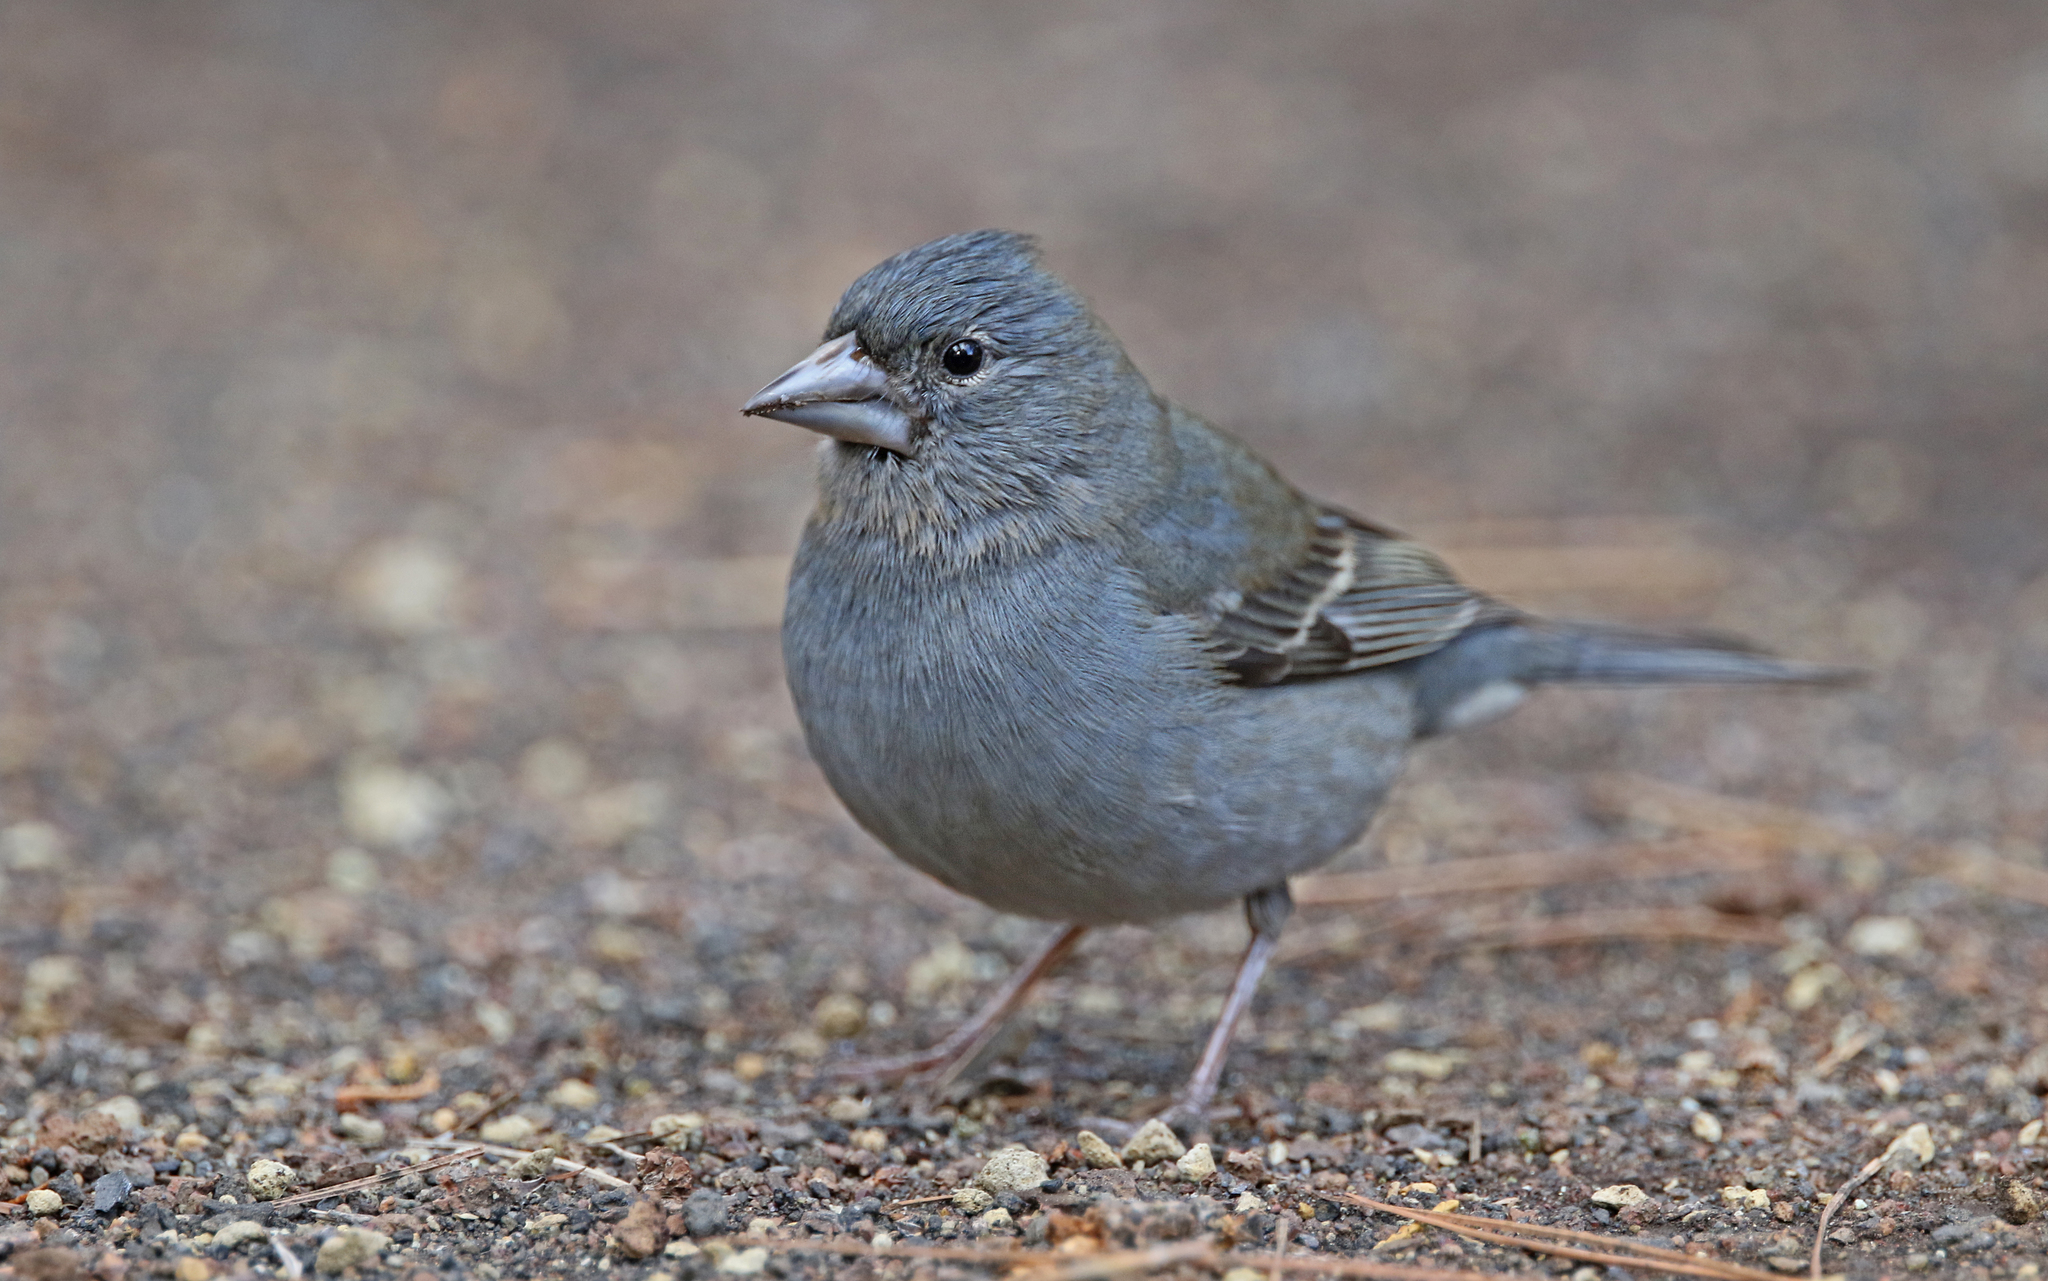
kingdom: Animalia
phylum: Chordata
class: Aves
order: Passeriformes
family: Fringillidae
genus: Fringilla
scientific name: Fringilla teydea
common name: Blue chaffinch
